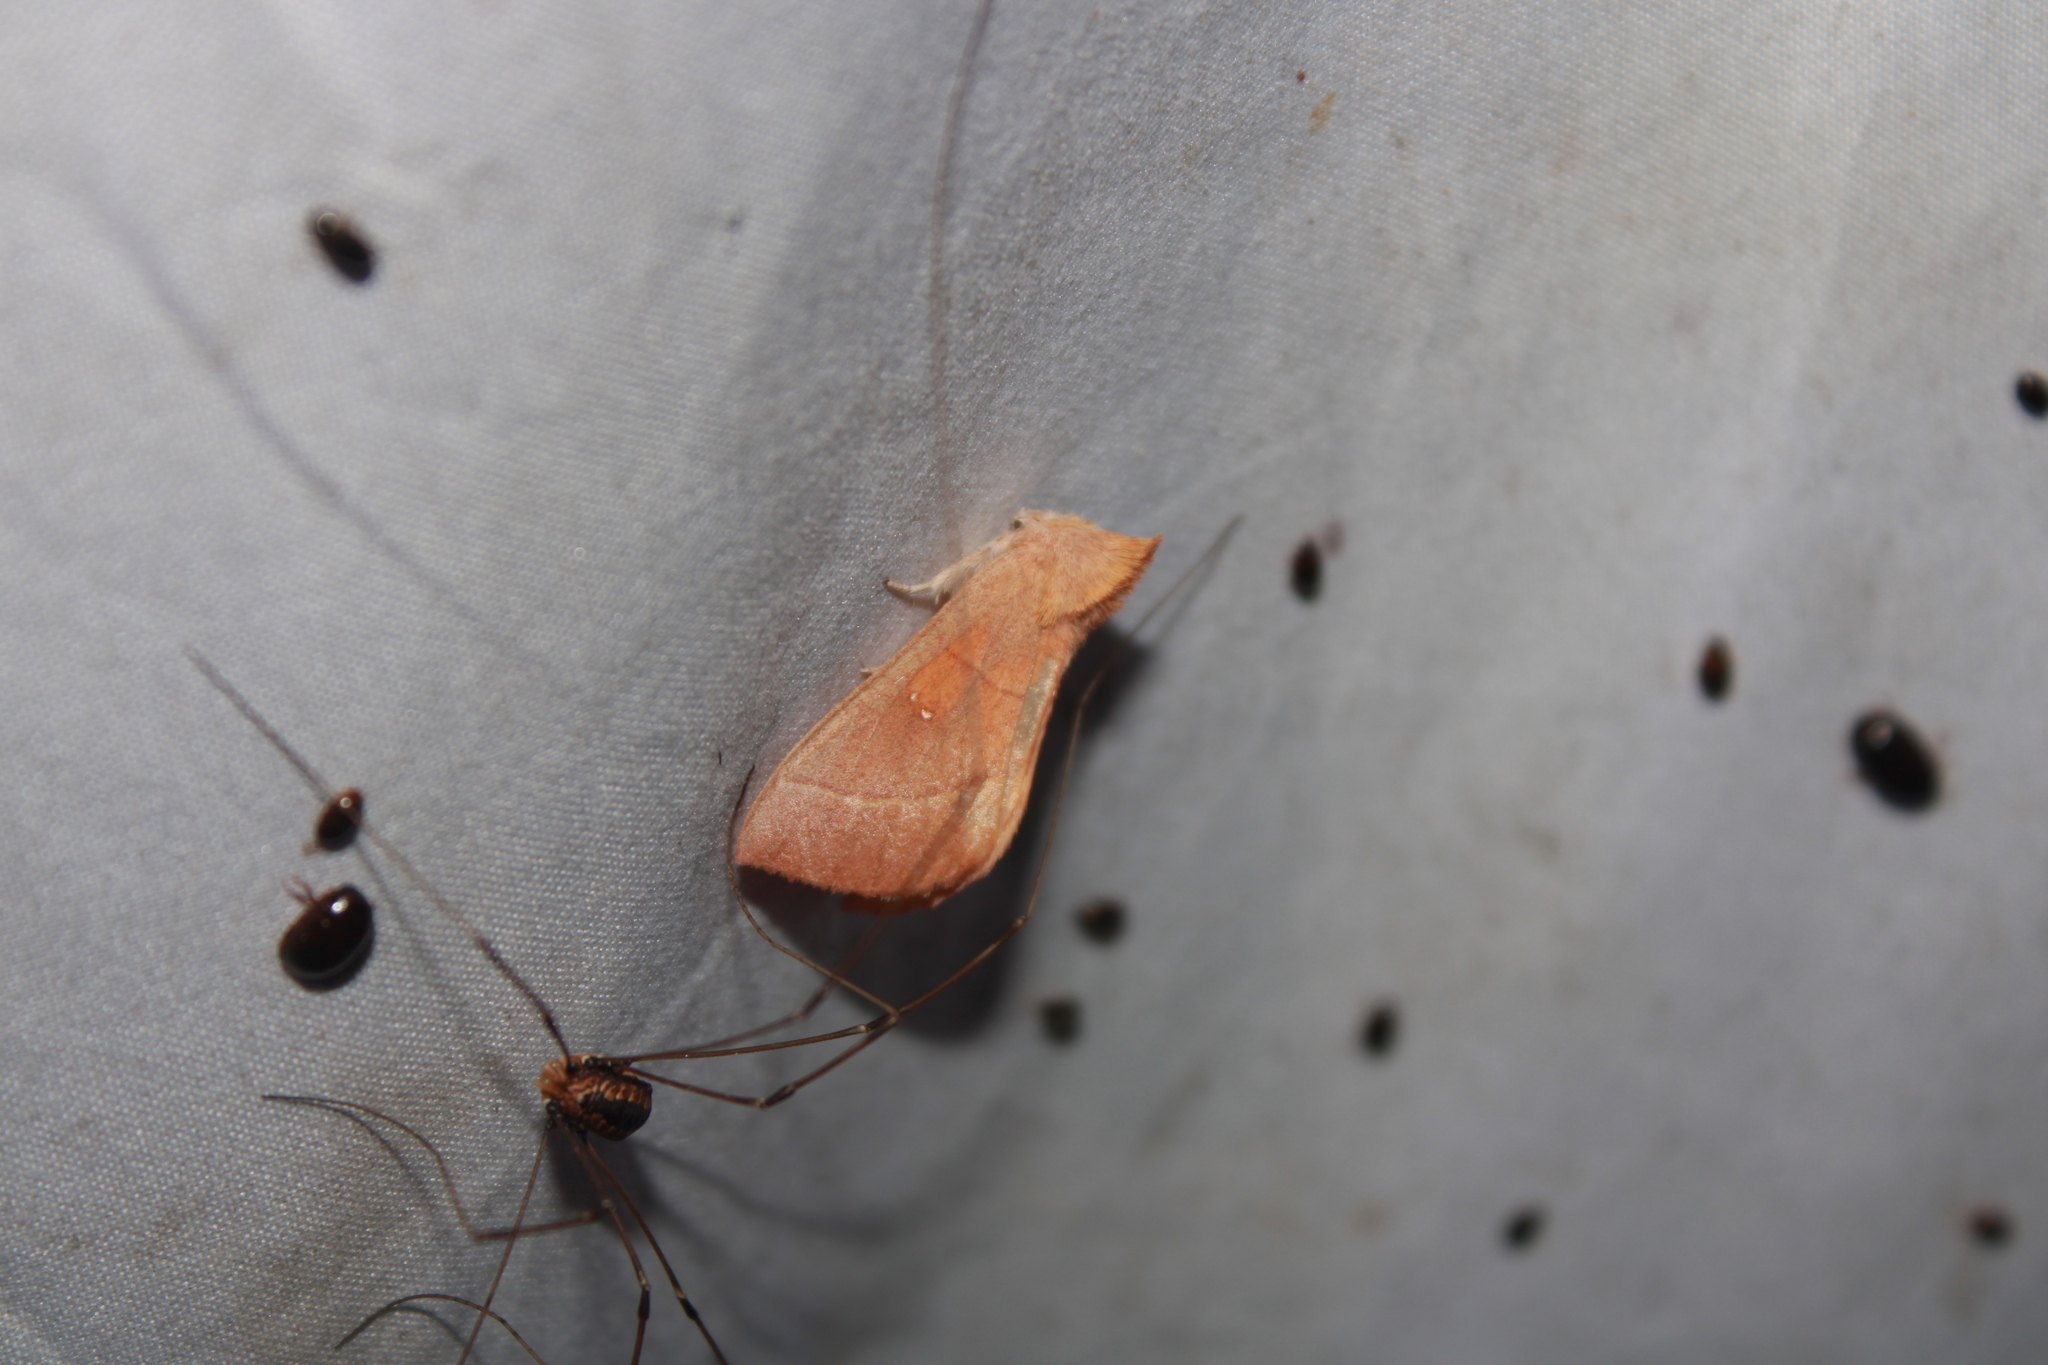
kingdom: Animalia
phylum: Arthropoda
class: Insecta
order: Lepidoptera
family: Notodontidae
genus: Nadata
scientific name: Nadata gibbosa
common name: White-dotted prominent
